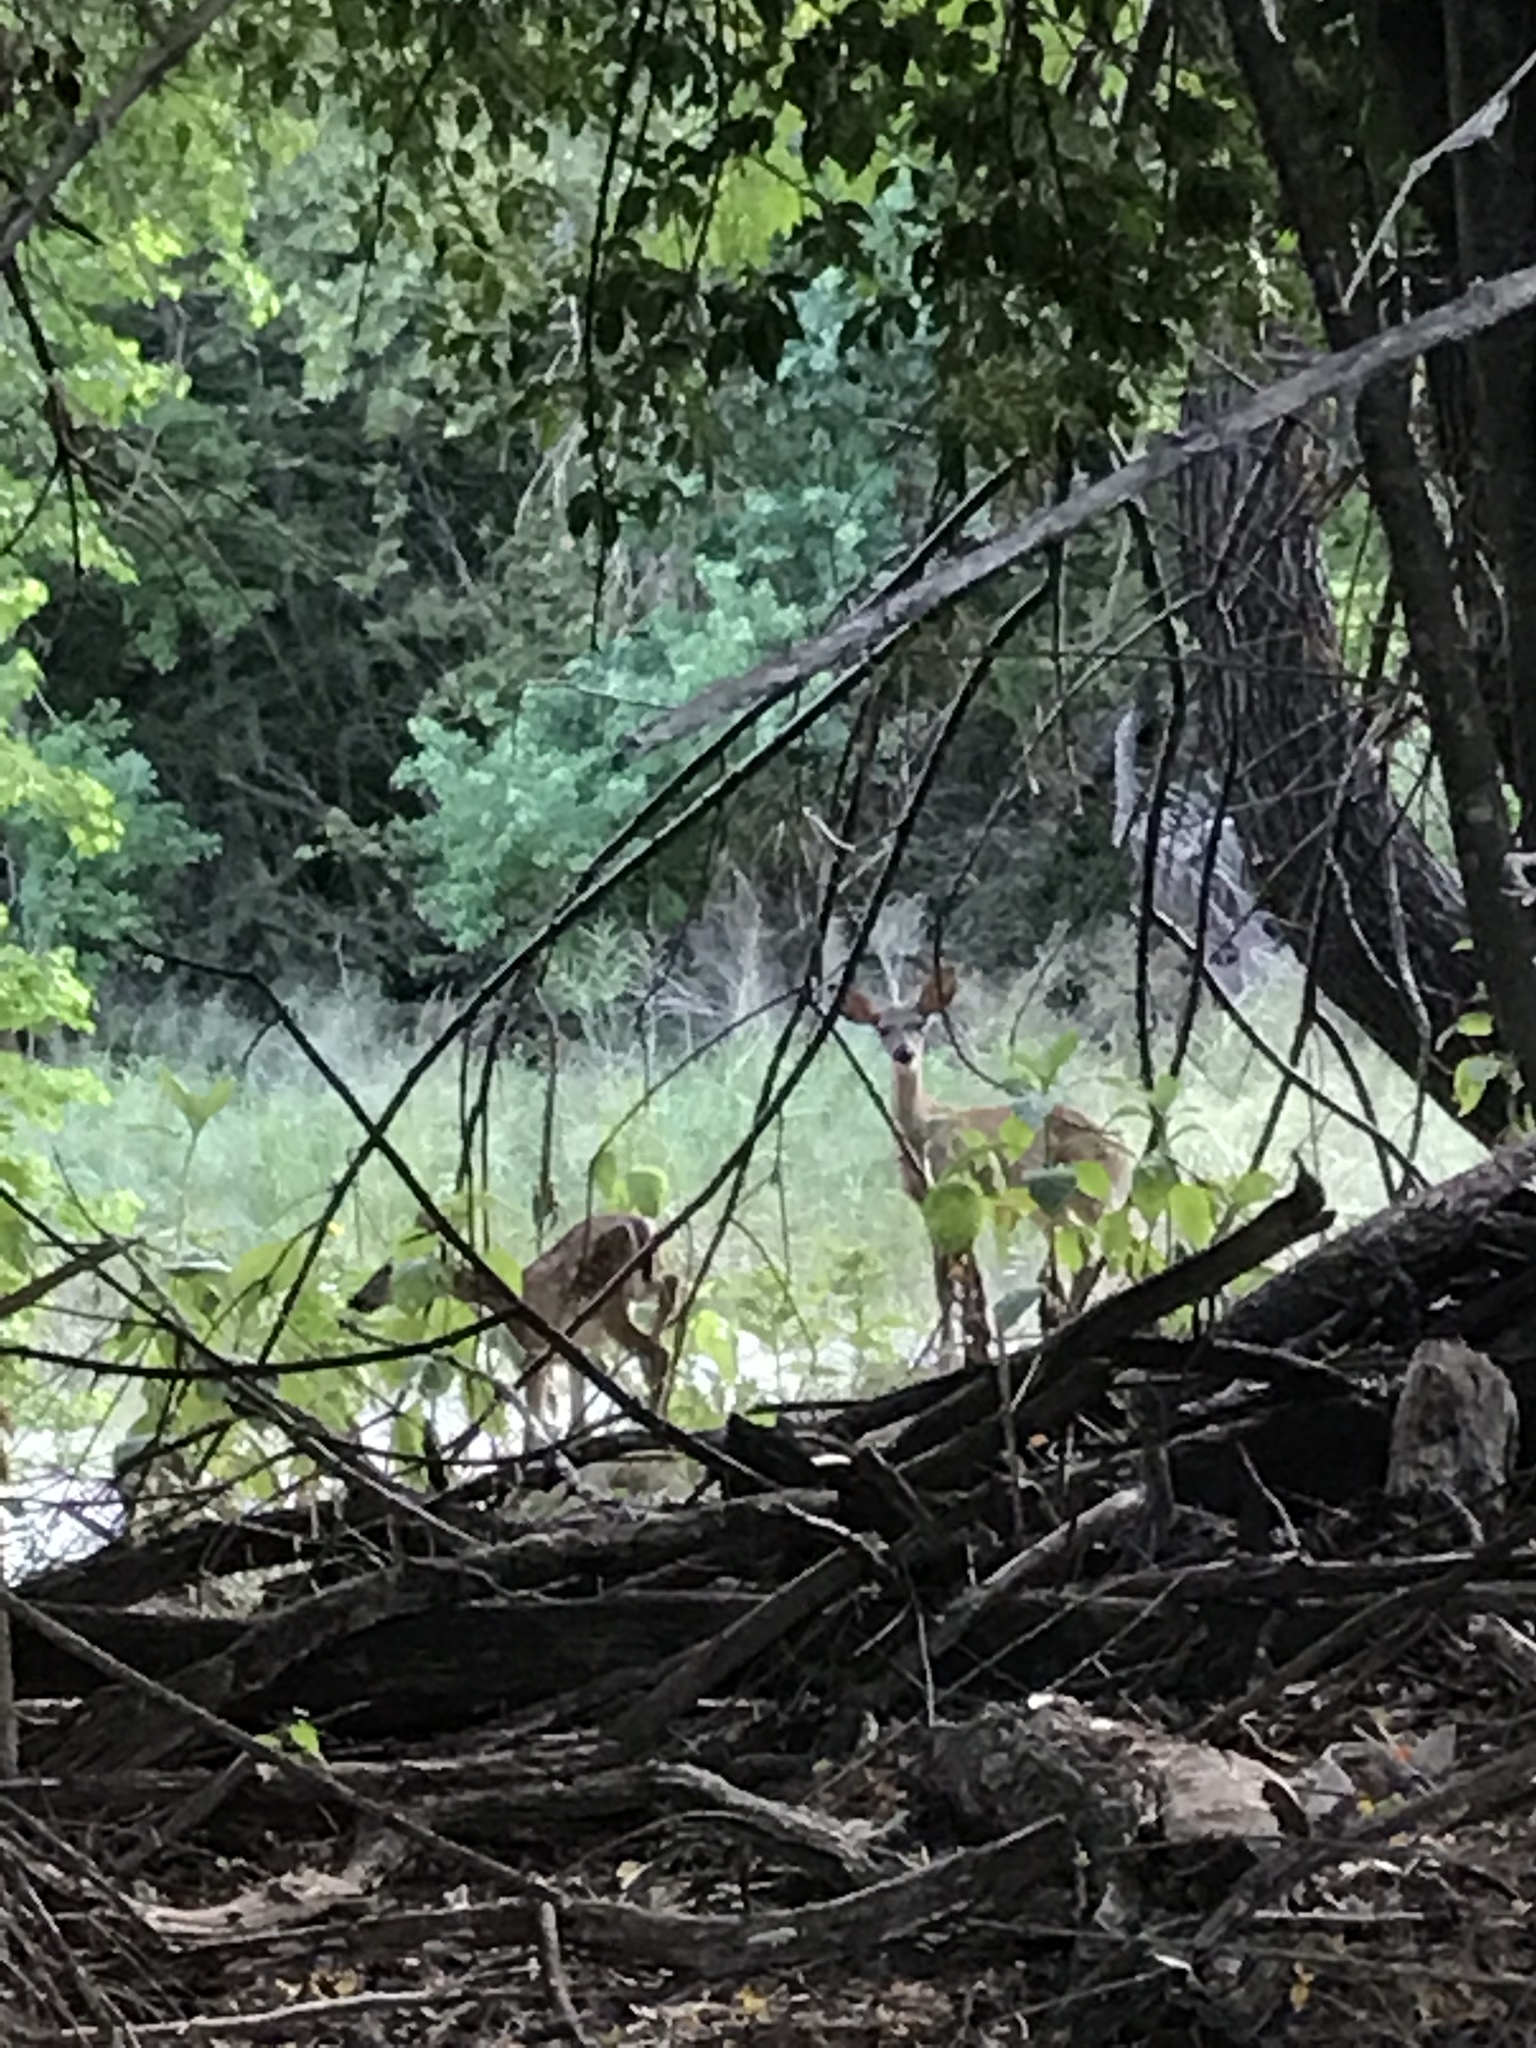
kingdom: Animalia
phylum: Chordata
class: Mammalia
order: Artiodactyla
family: Cervidae
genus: Odocoileus
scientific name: Odocoileus virginianus
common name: White-tailed deer
